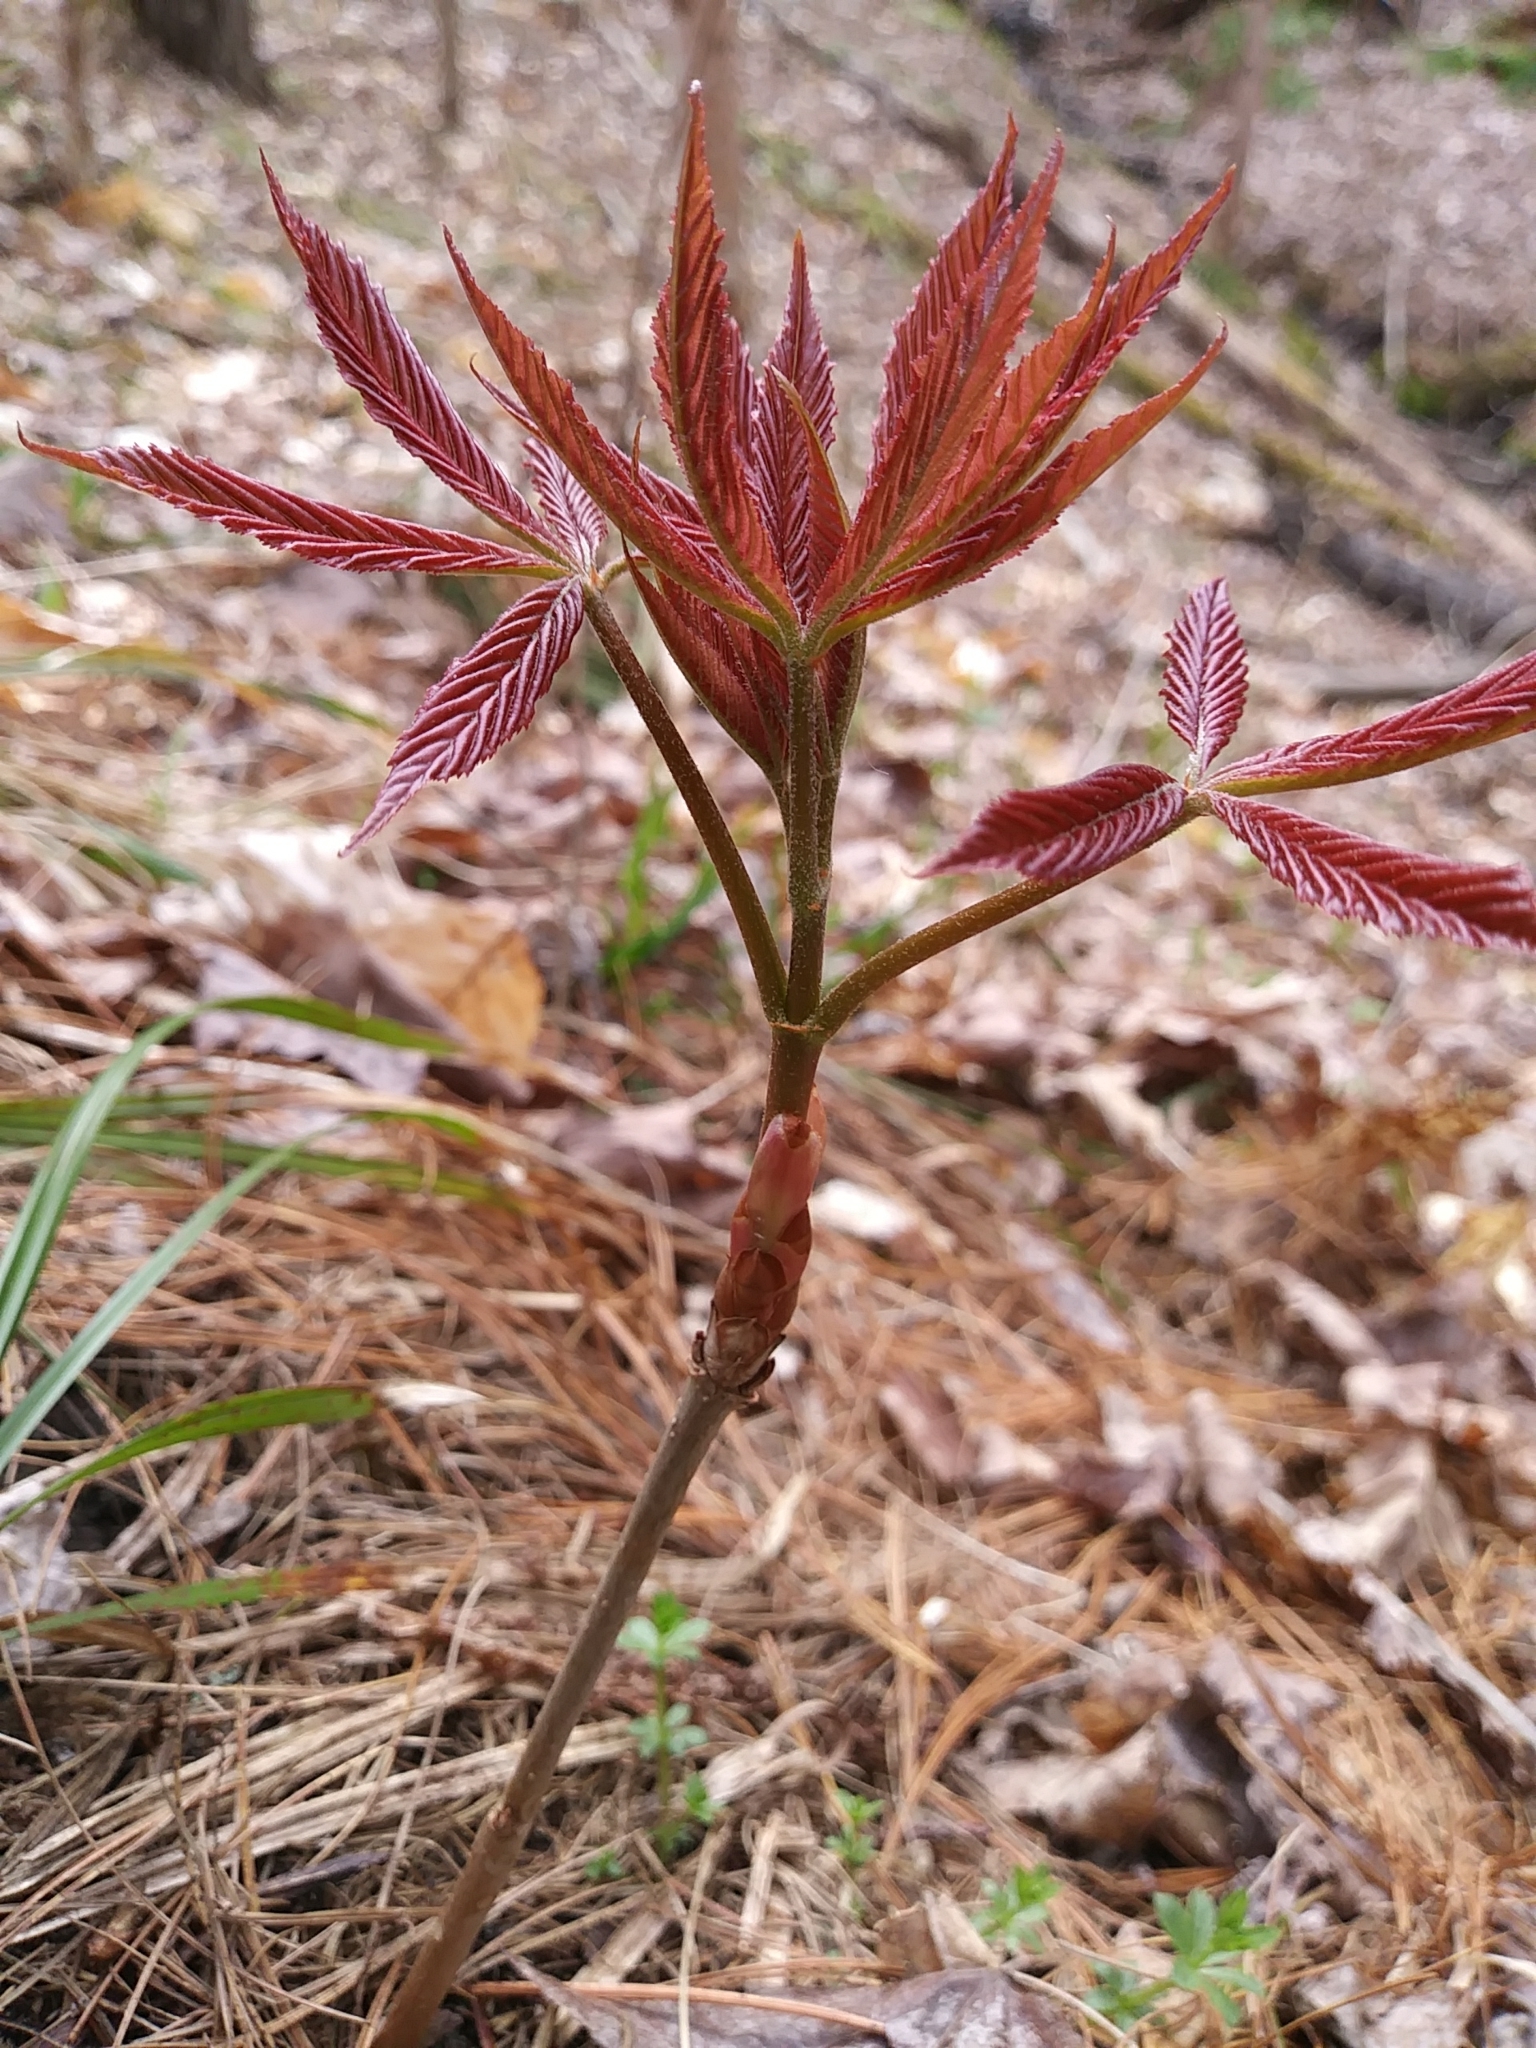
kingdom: Plantae
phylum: Tracheophyta
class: Magnoliopsida
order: Sapindales
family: Sapindaceae
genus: Aesculus
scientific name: Aesculus hippocastanum
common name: Horse-chestnut
